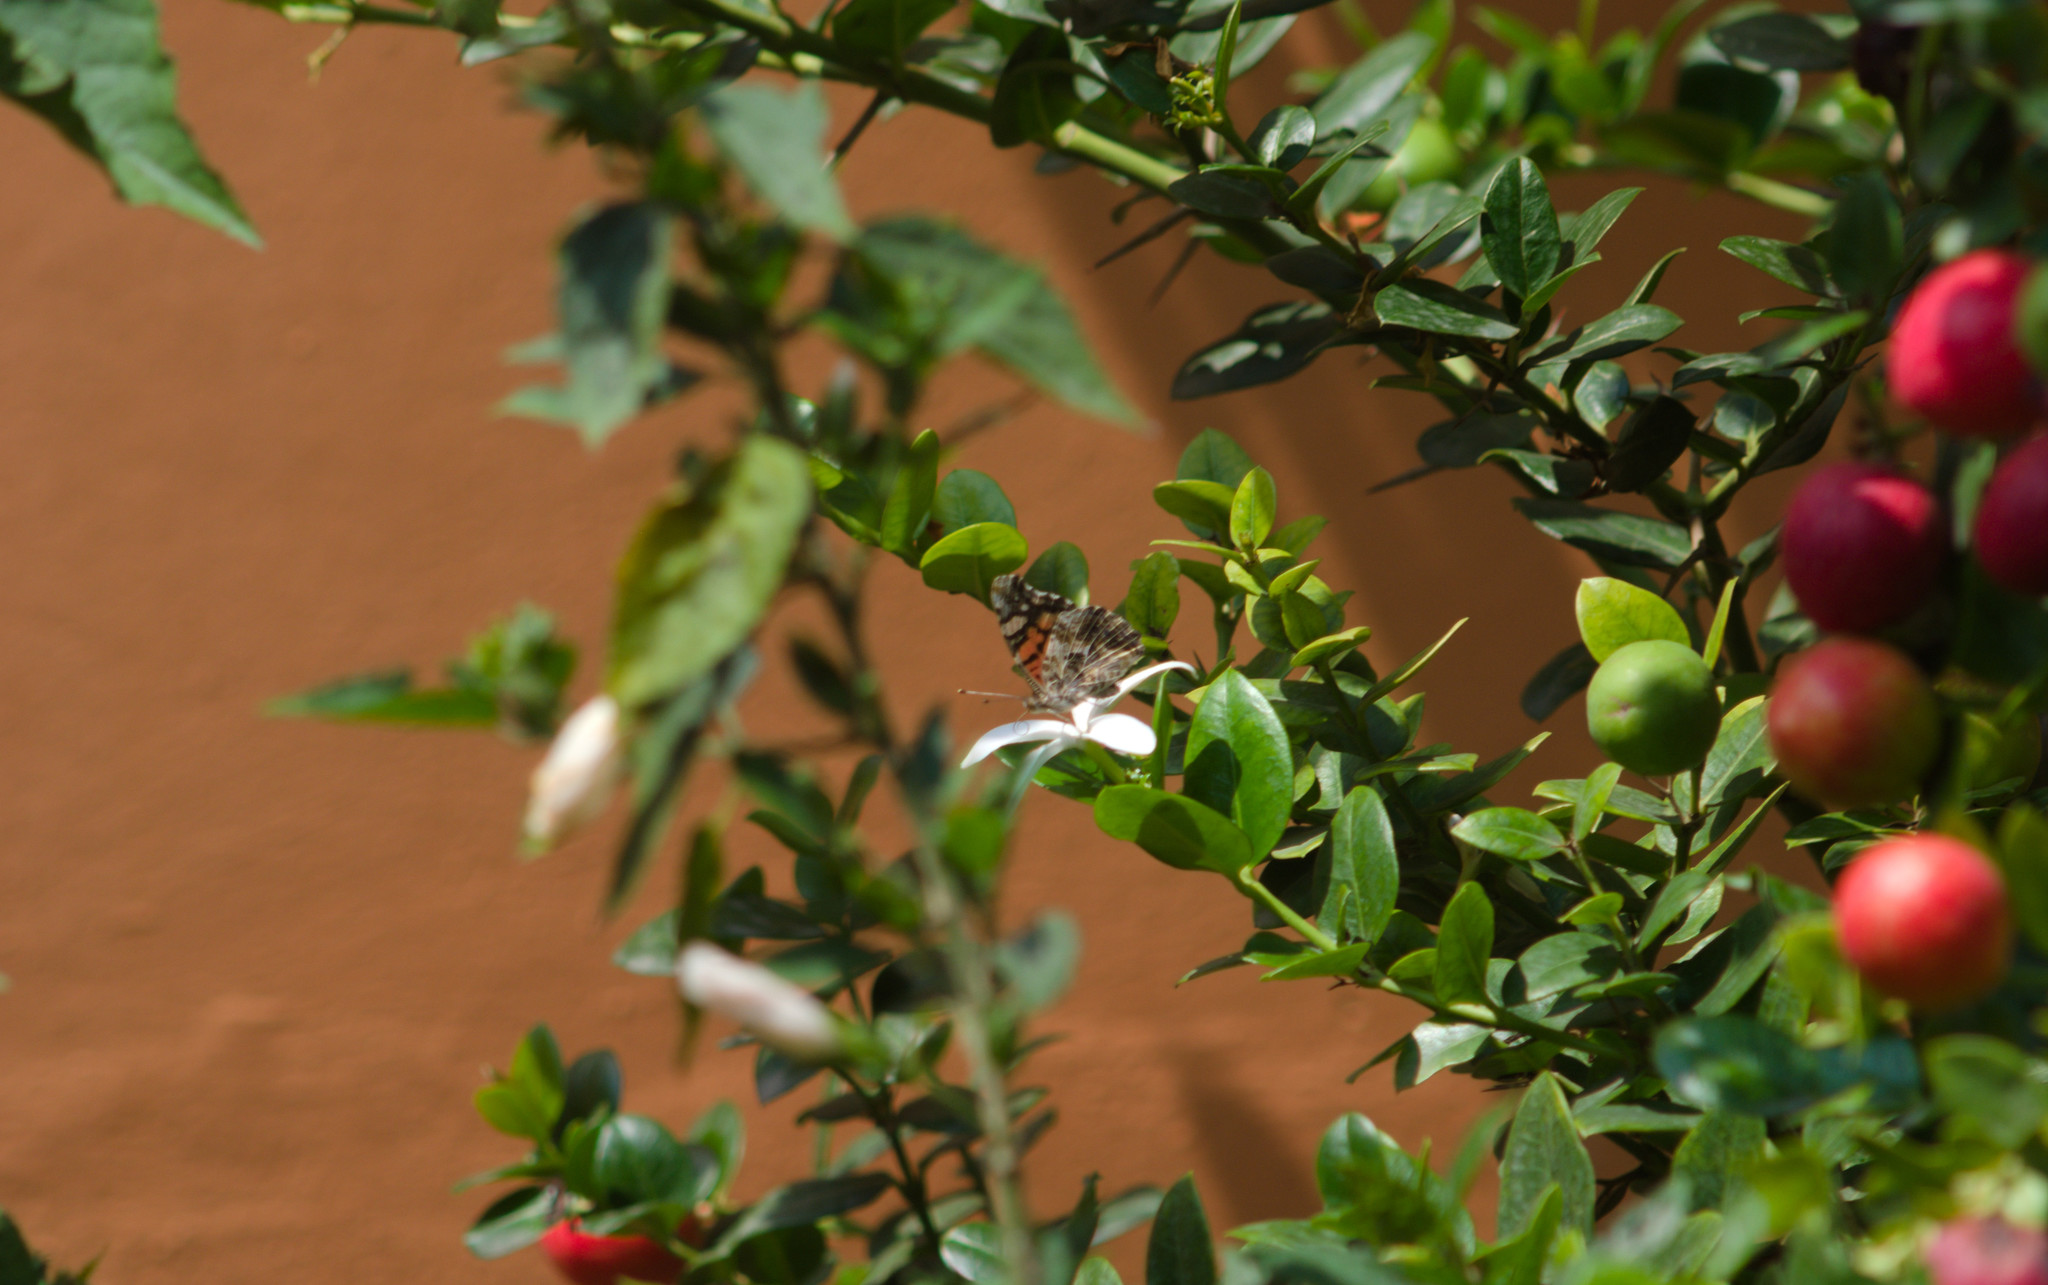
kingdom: Animalia
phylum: Arthropoda
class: Insecta
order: Lepidoptera
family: Nymphalidae
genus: Vanessa
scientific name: Vanessa annabella
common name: West coast lady
